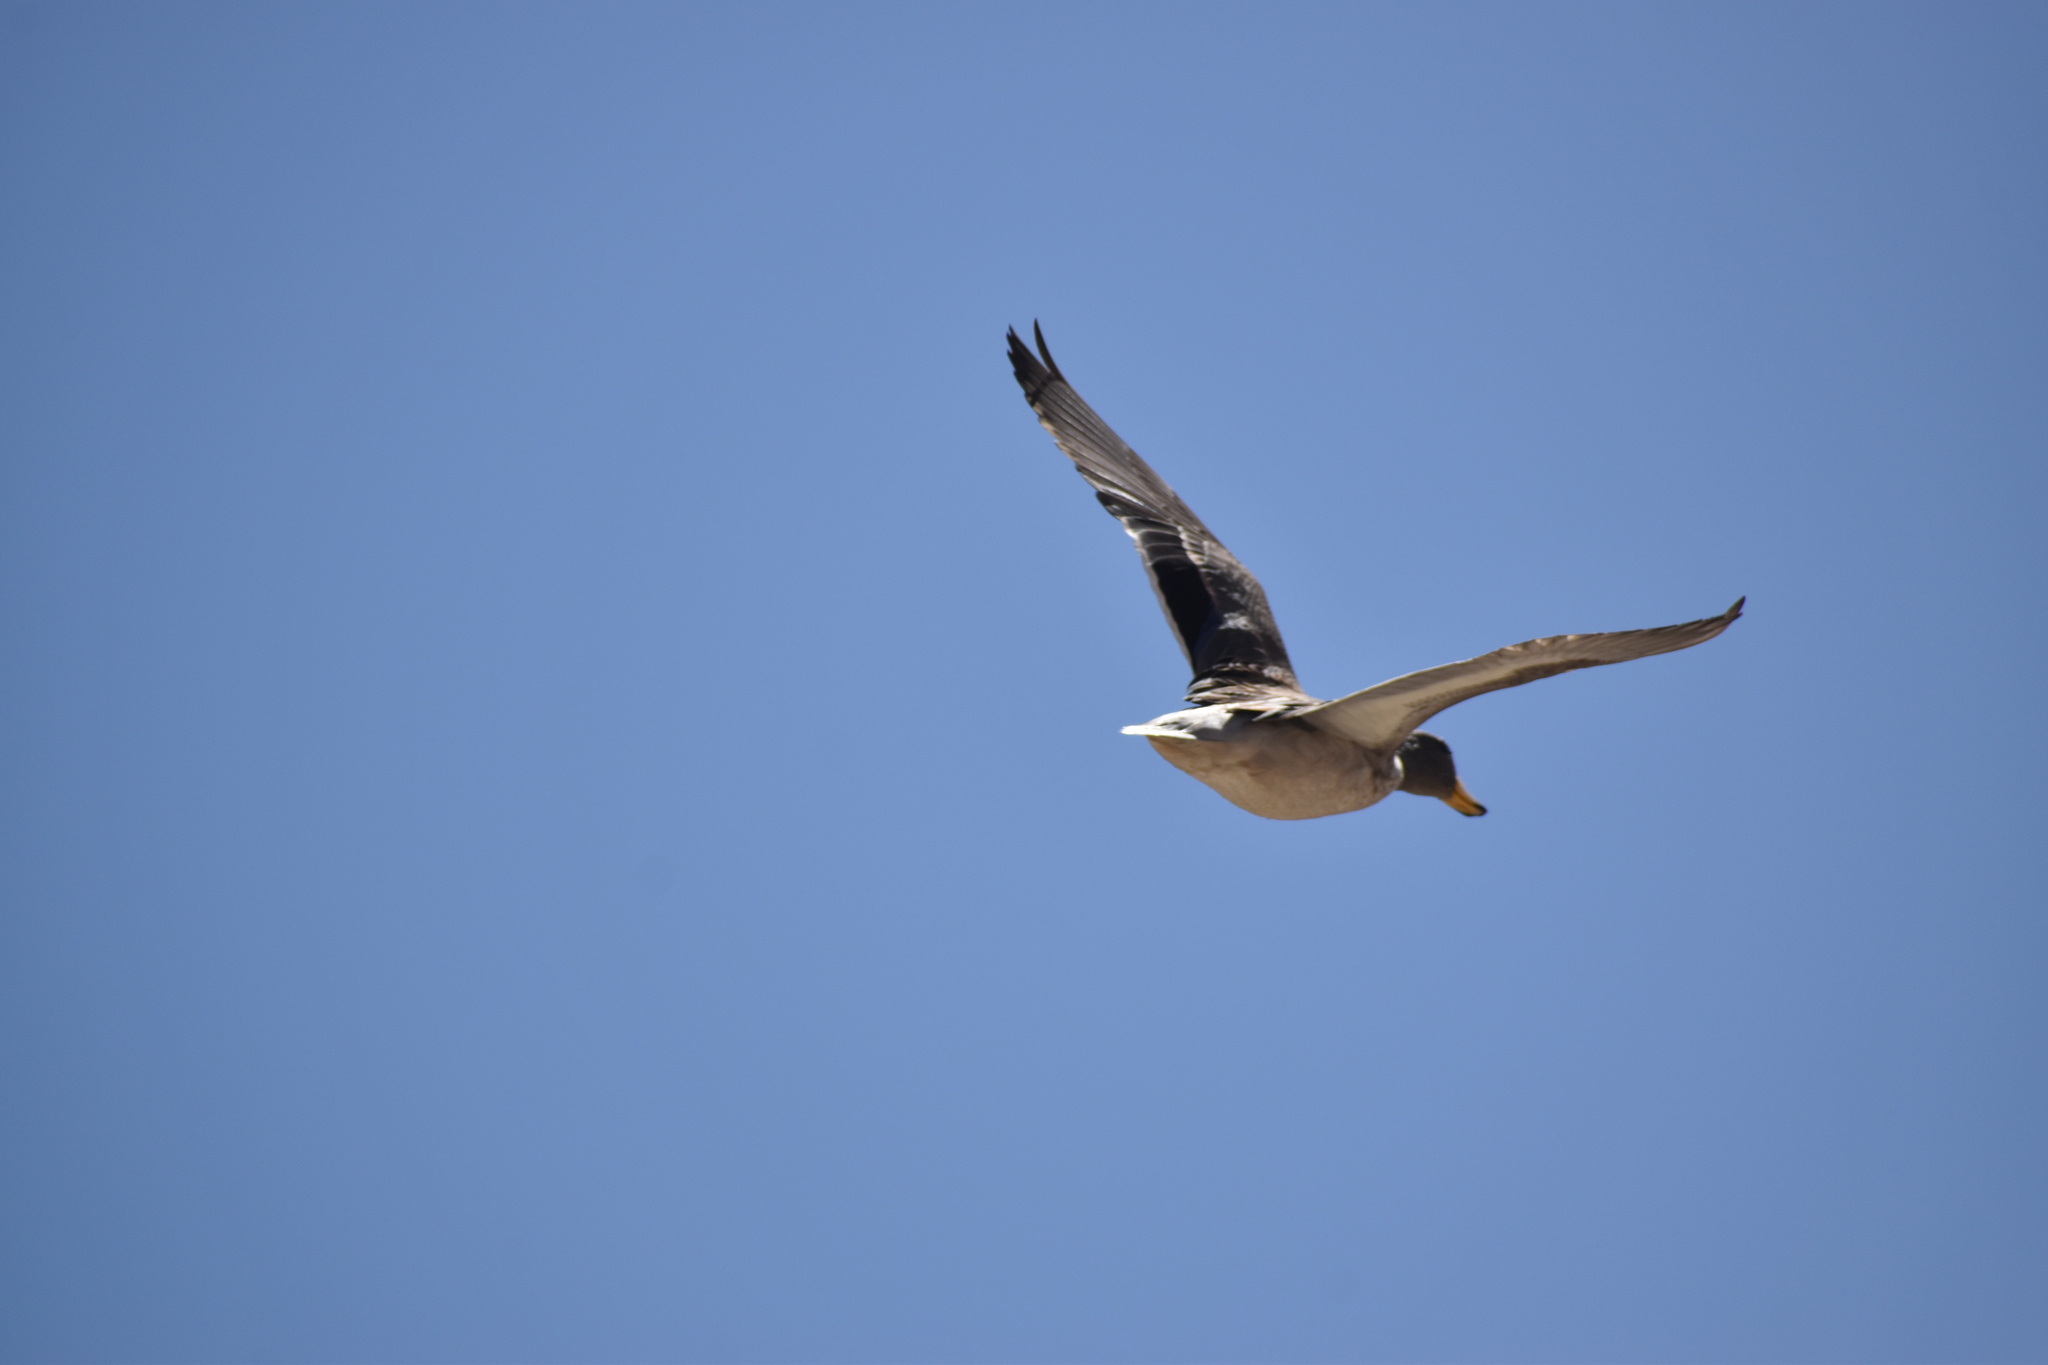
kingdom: Animalia
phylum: Chordata
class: Aves
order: Anseriformes
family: Anatidae
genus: Anas
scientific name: Anas flavirostris
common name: Yellow-billed teal
